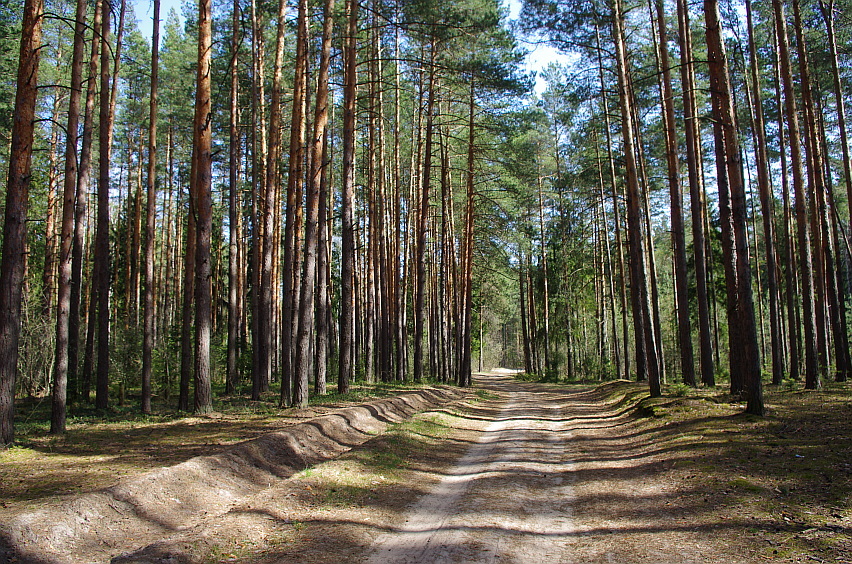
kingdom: Plantae
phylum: Tracheophyta
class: Pinopsida
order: Pinales
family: Pinaceae
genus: Pinus
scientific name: Pinus sylvestris
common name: Scots pine
